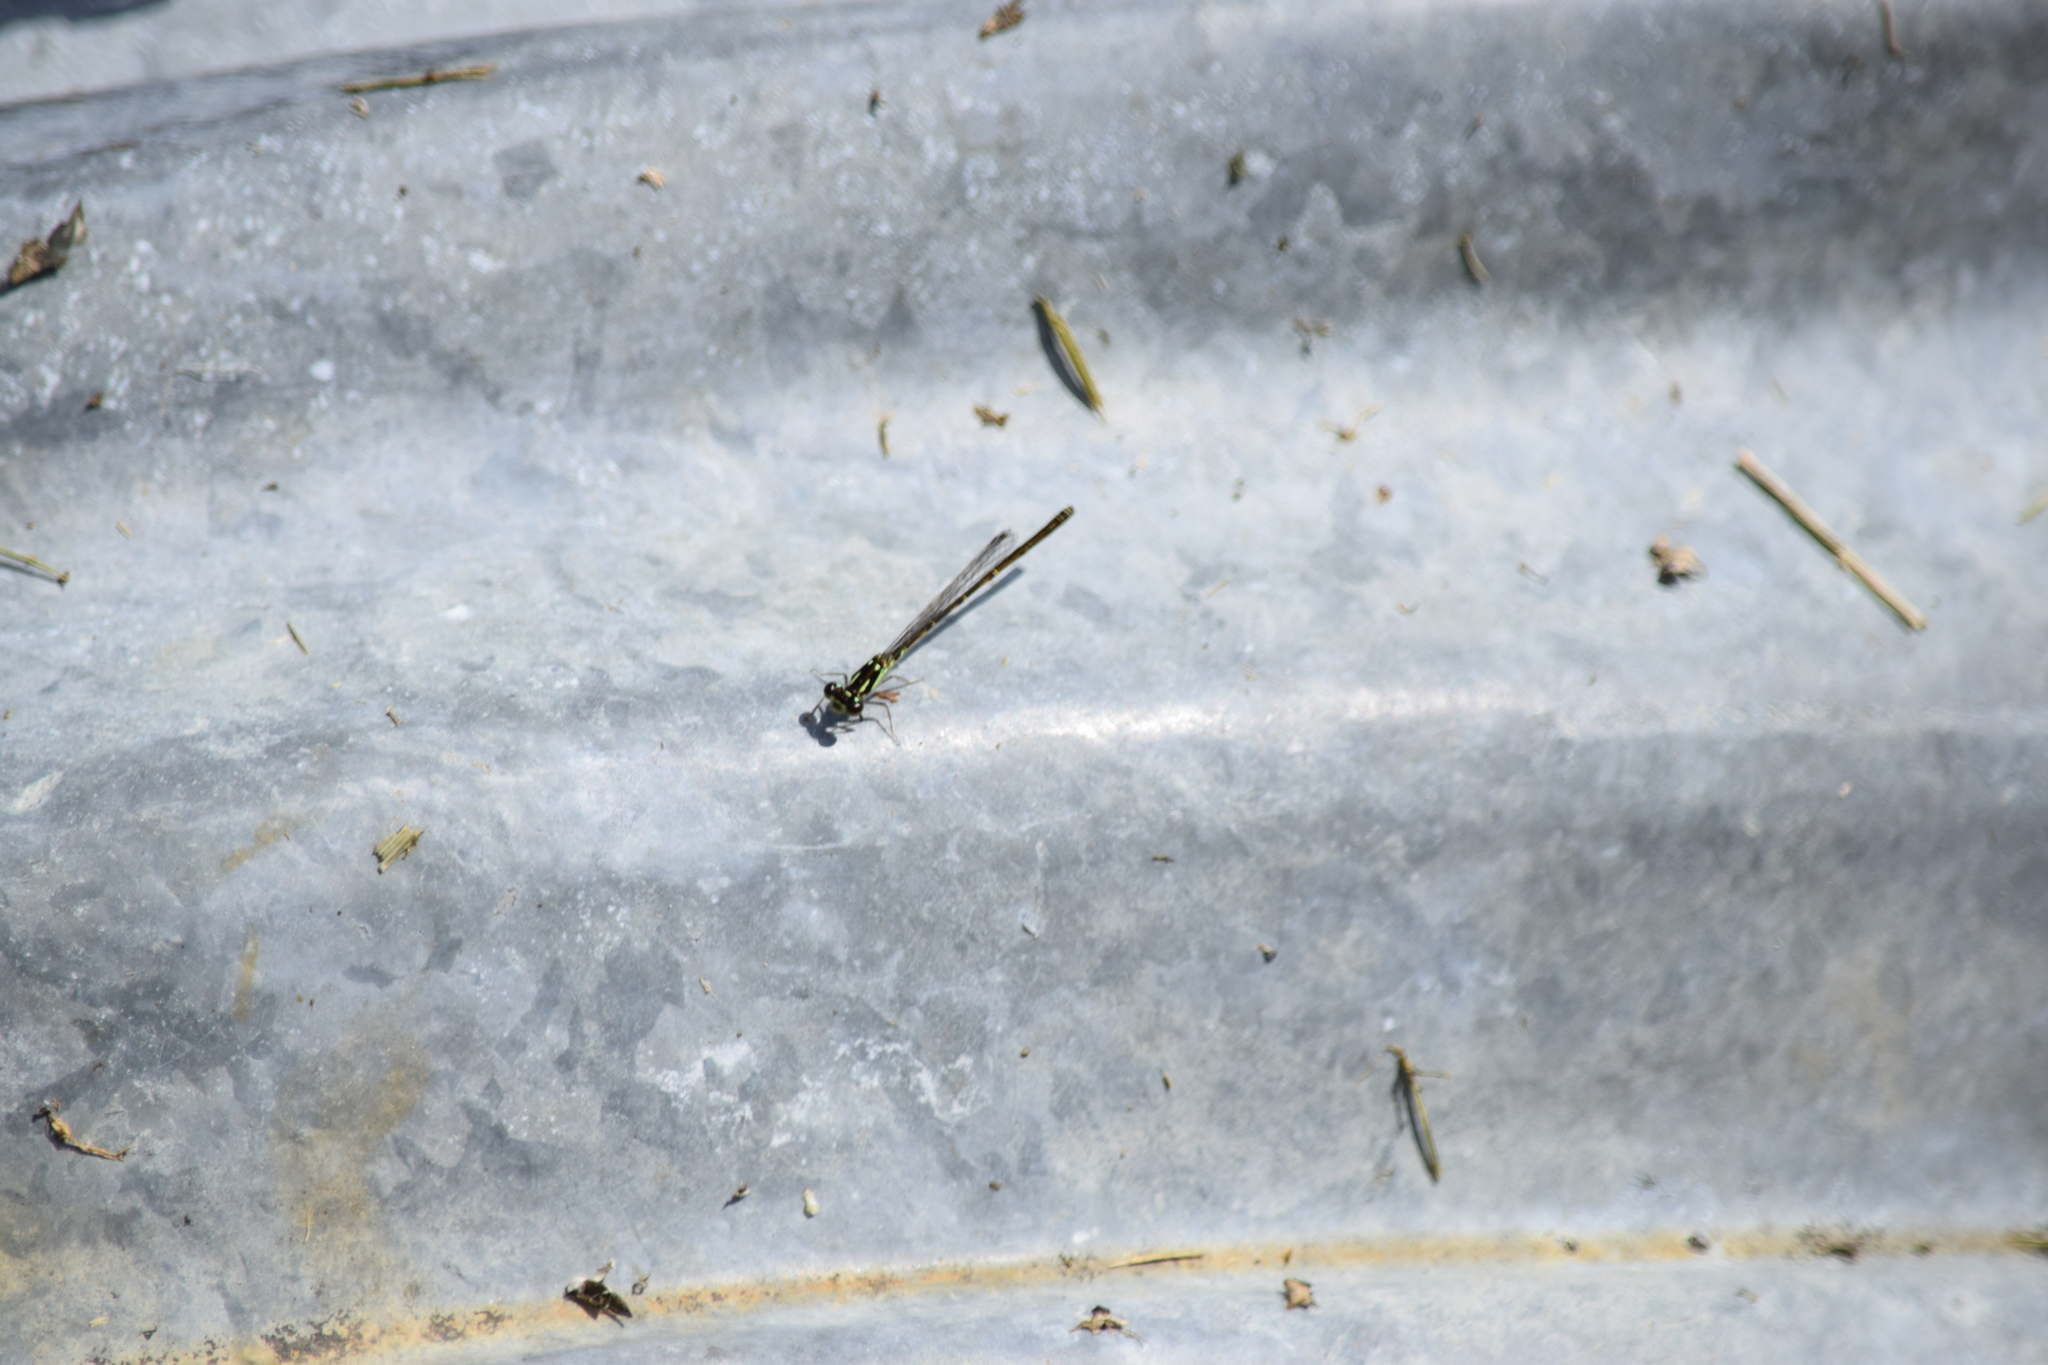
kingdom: Animalia
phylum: Arthropoda
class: Insecta
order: Odonata
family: Coenagrionidae
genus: Ischnura
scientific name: Ischnura posita
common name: Fragile forktail
